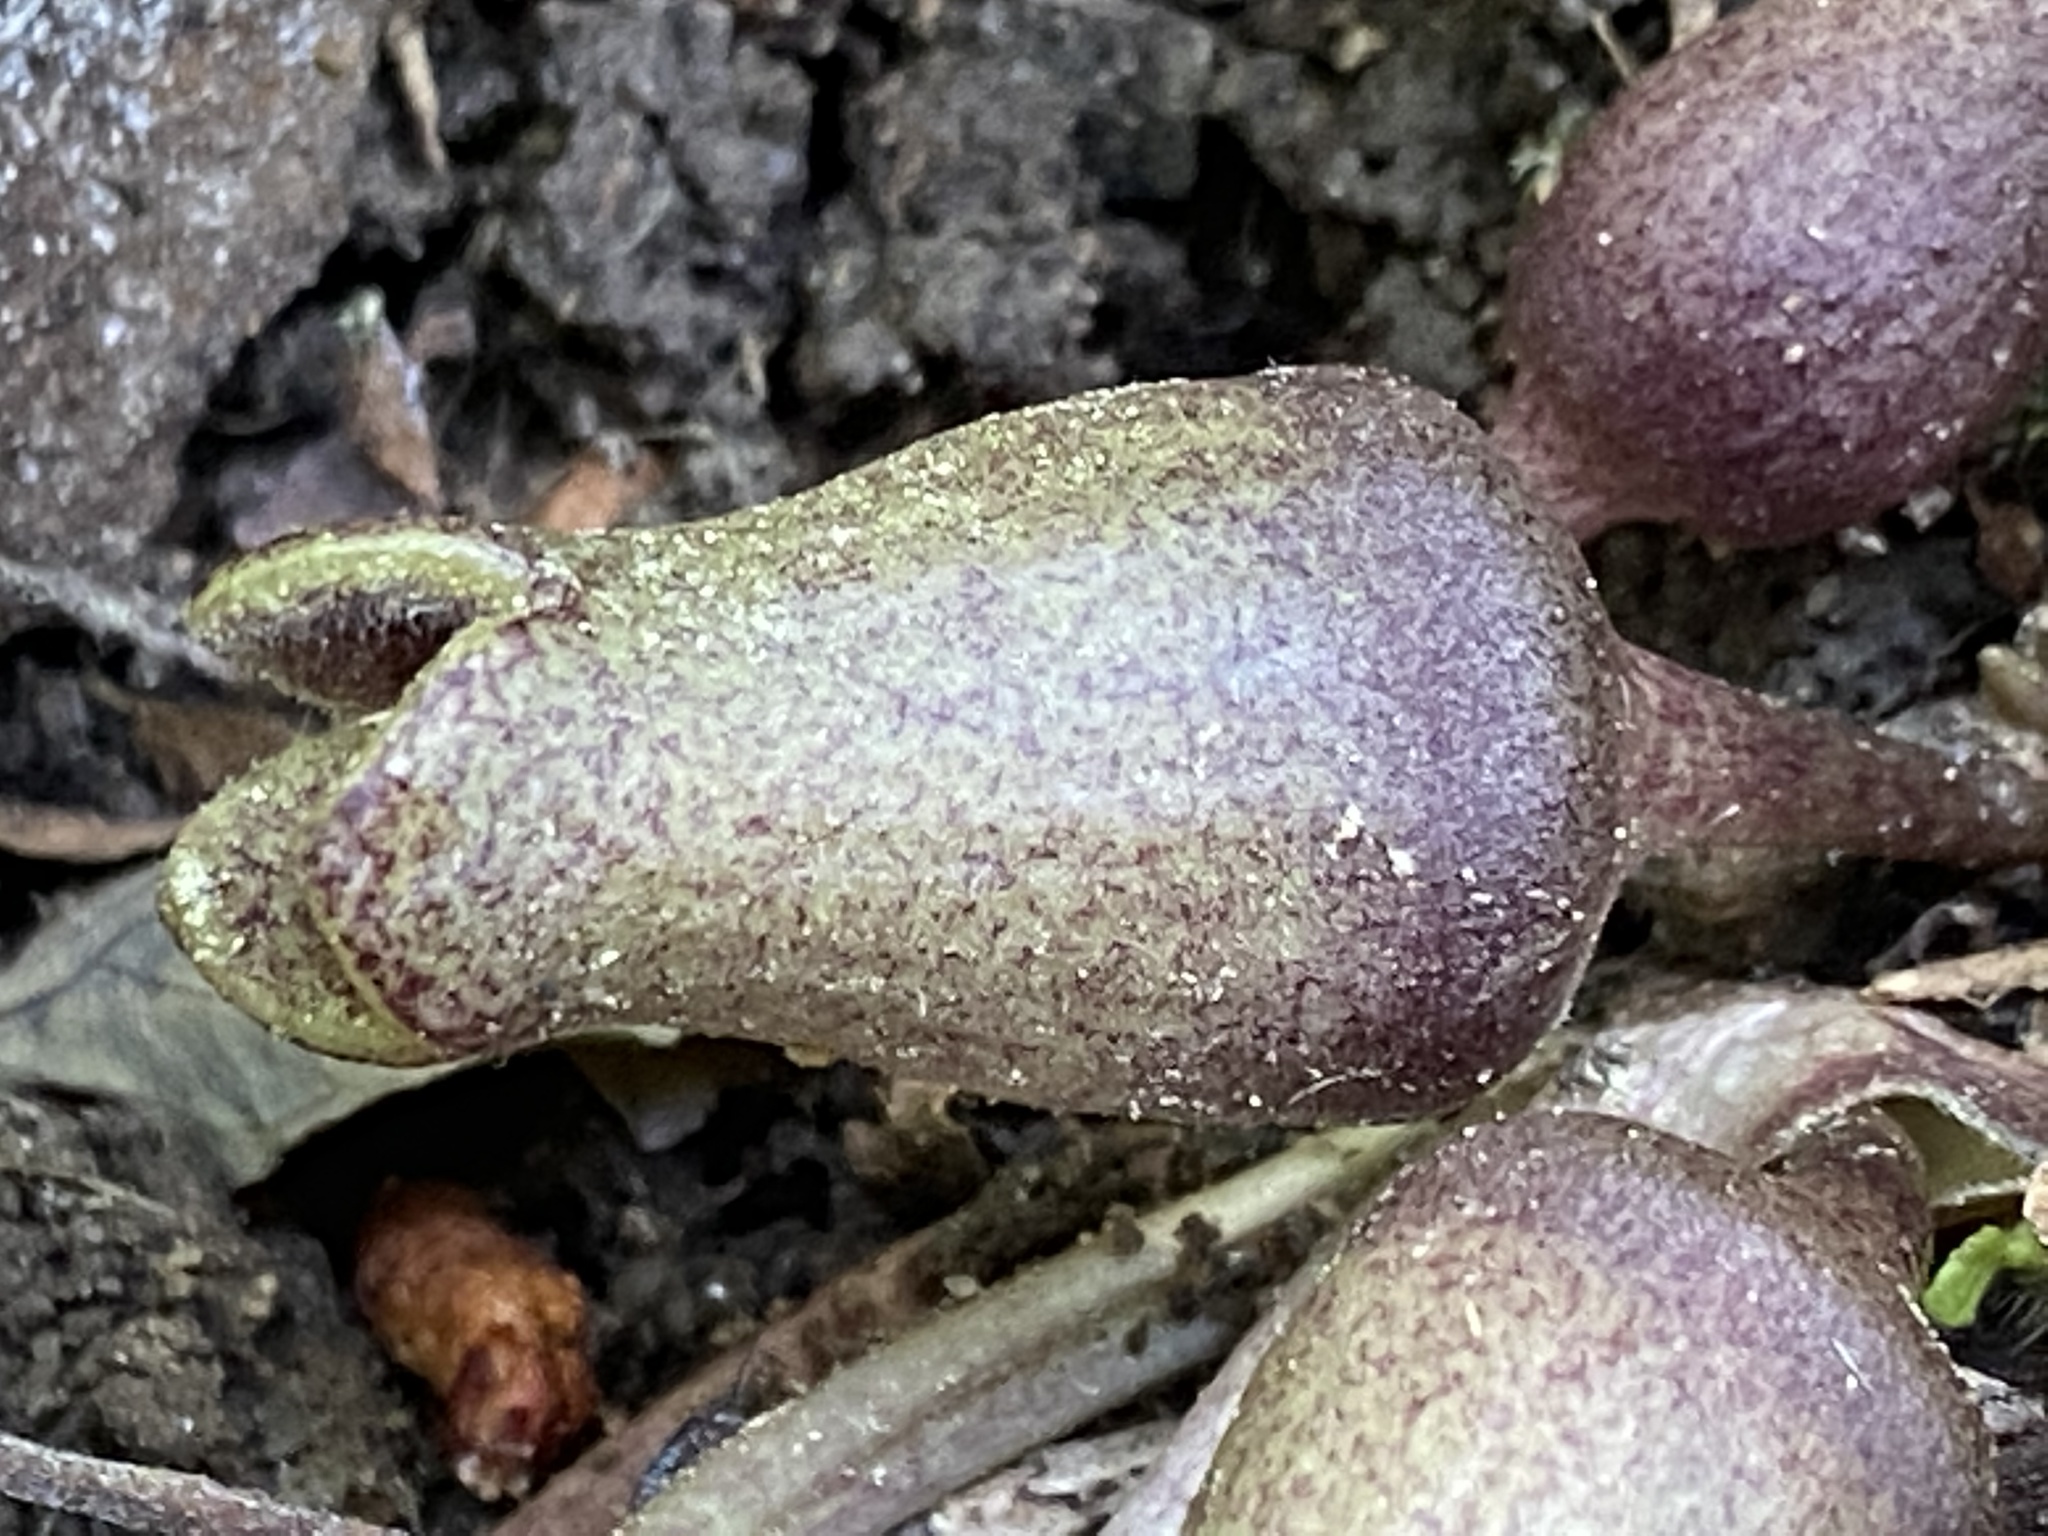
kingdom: Plantae
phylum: Tracheophyta
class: Magnoliopsida
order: Piperales
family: Aristolochiaceae
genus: Hexastylis
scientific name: Hexastylis arifolia
